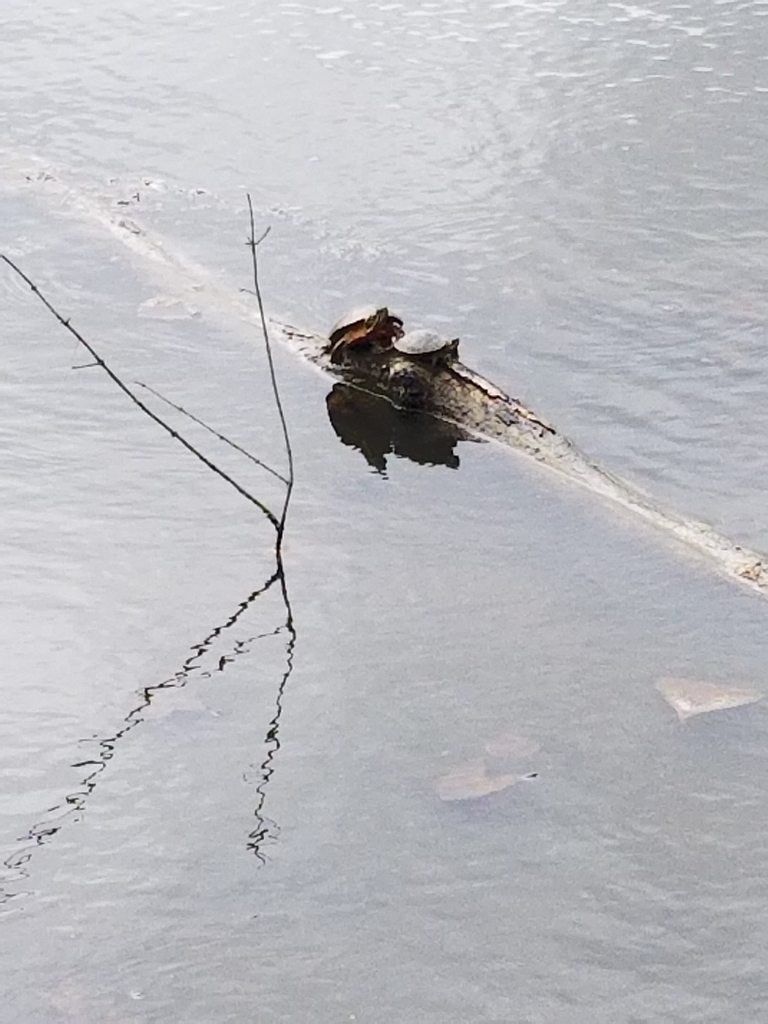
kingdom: Animalia
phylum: Chordata
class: Testudines
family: Emydidae
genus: Chrysemys
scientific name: Chrysemys picta
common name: Painted turtle
